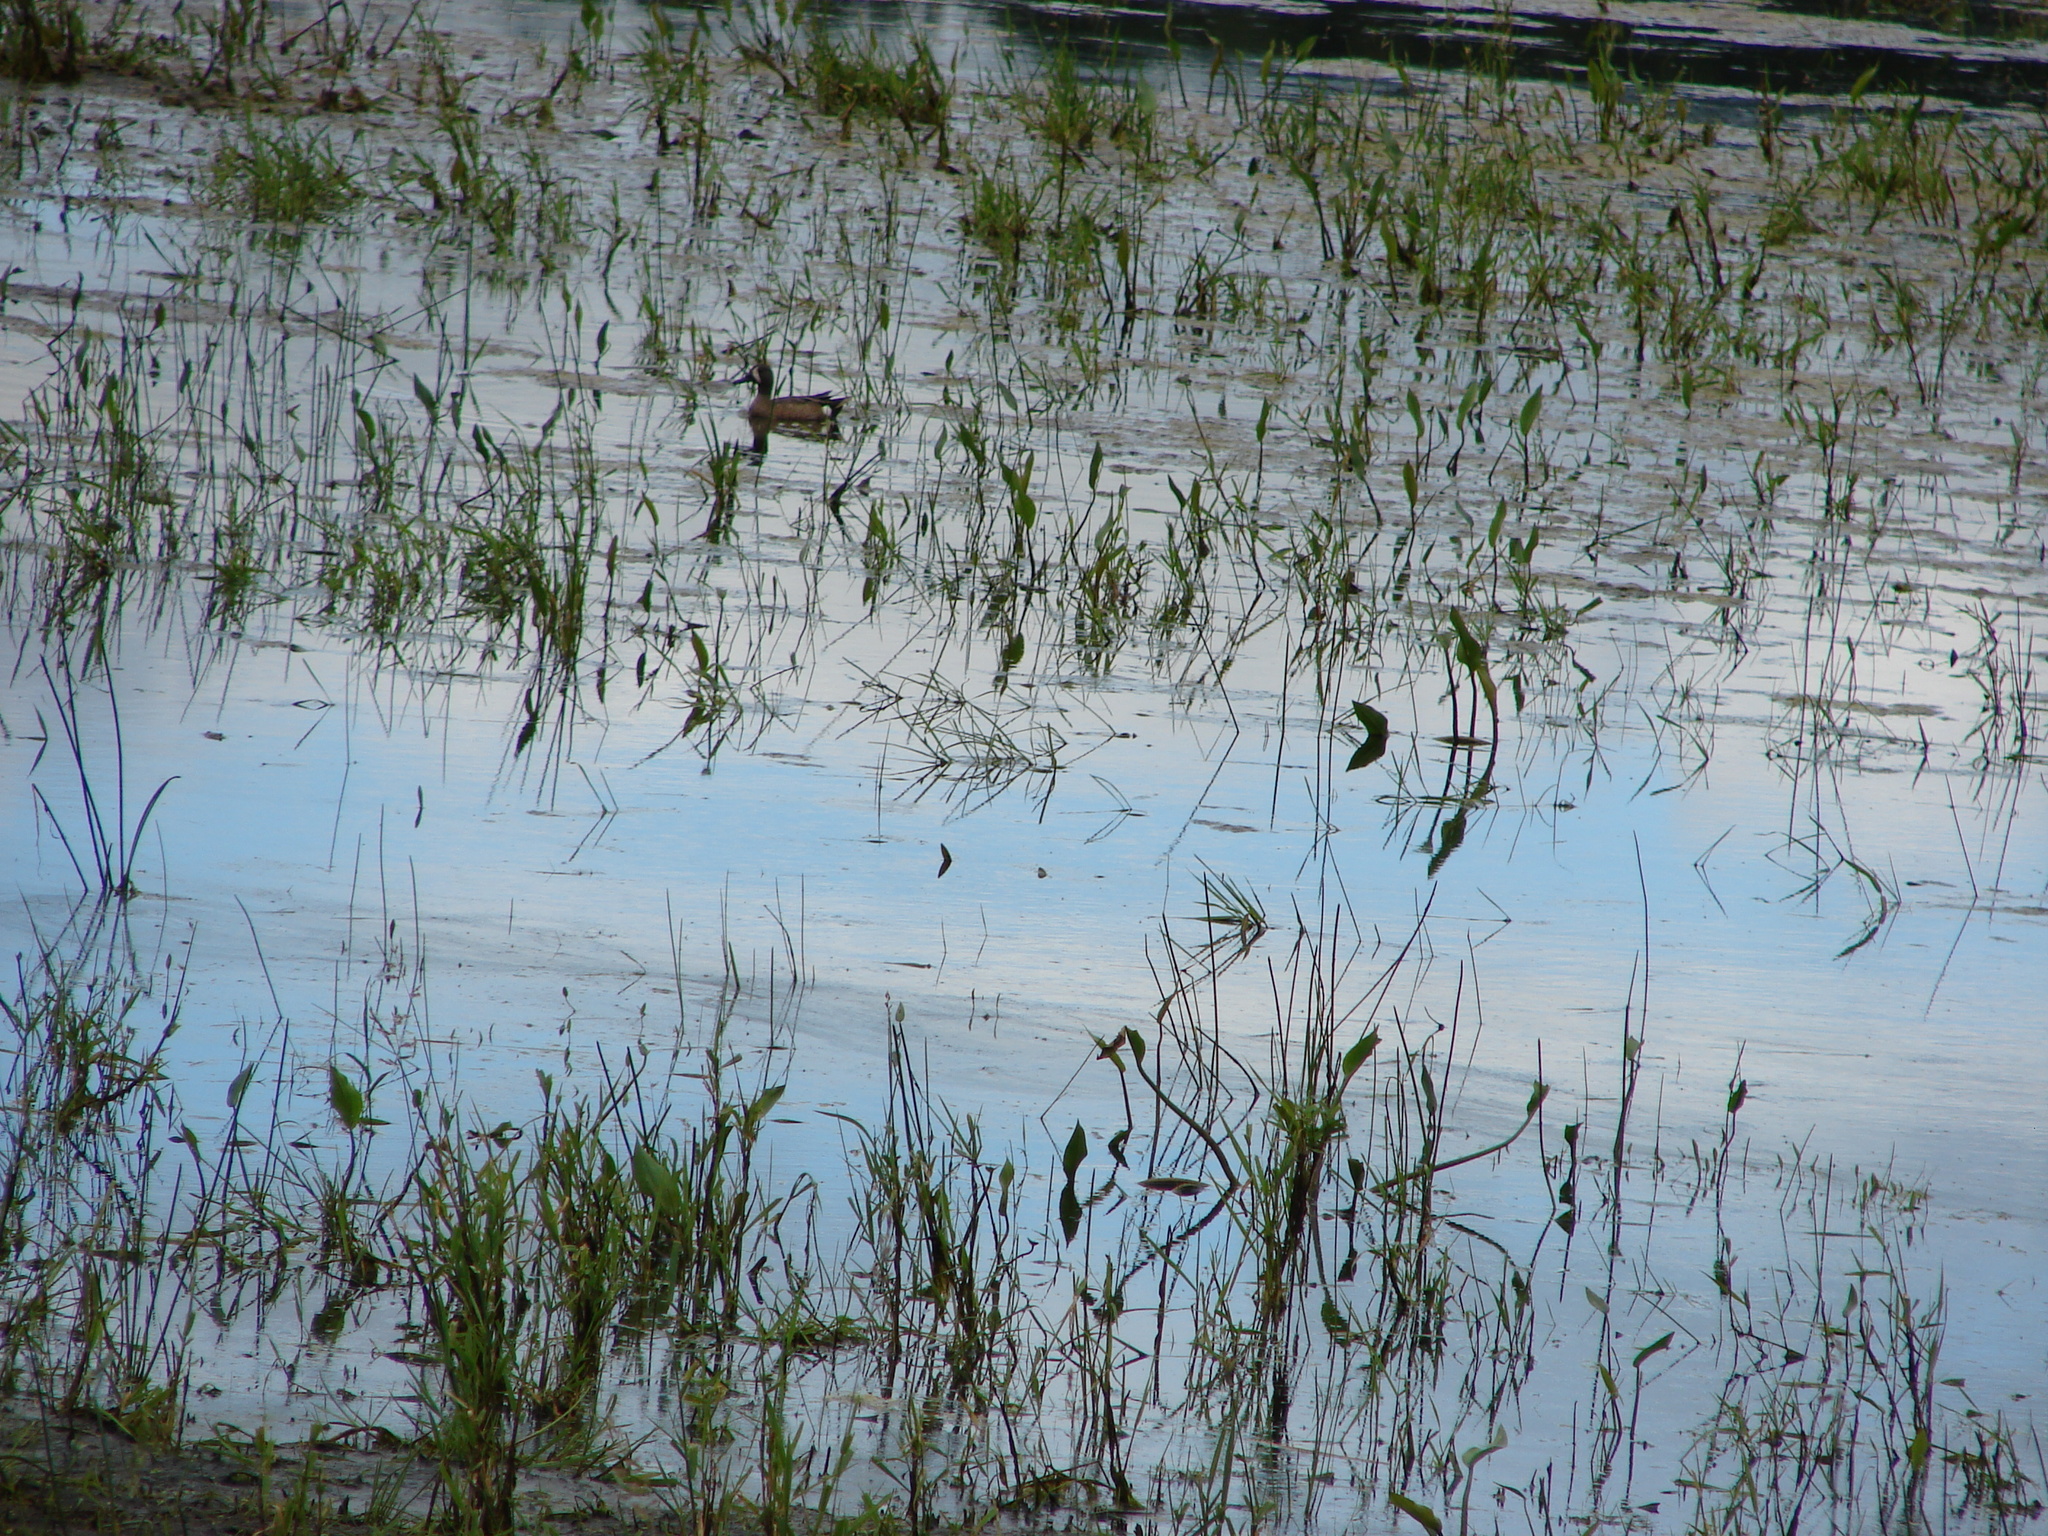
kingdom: Animalia
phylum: Chordata
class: Aves
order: Anseriformes
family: Anatidae
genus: Spatula
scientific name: Spatula discors
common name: Blue-winged teal
